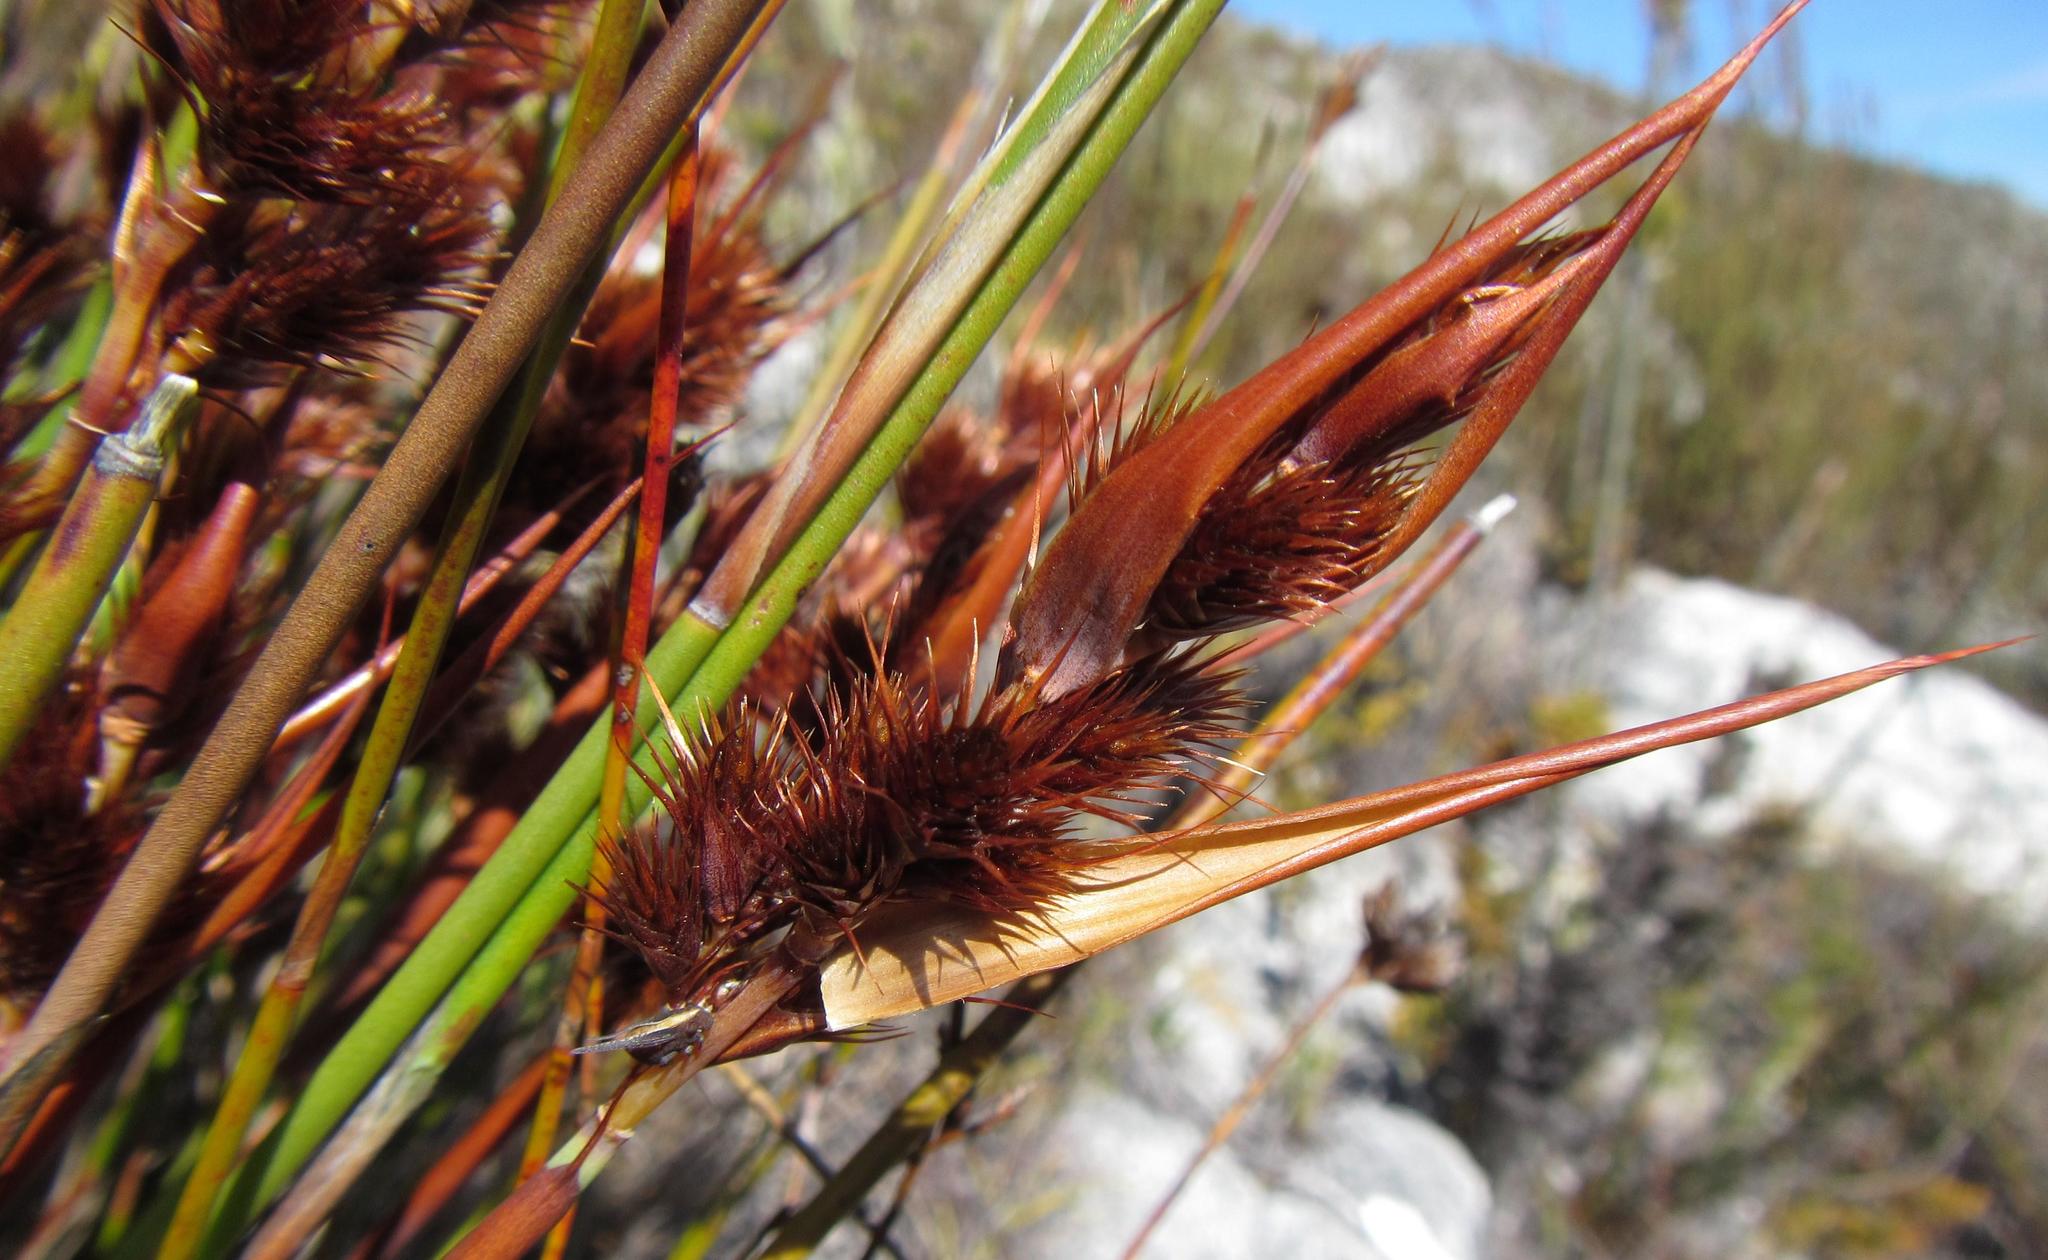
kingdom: Plantae
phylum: Tracheophyta
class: Liliopsida
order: Poales
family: Restionaceae
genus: Cannomois
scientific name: Cannomois nitida
